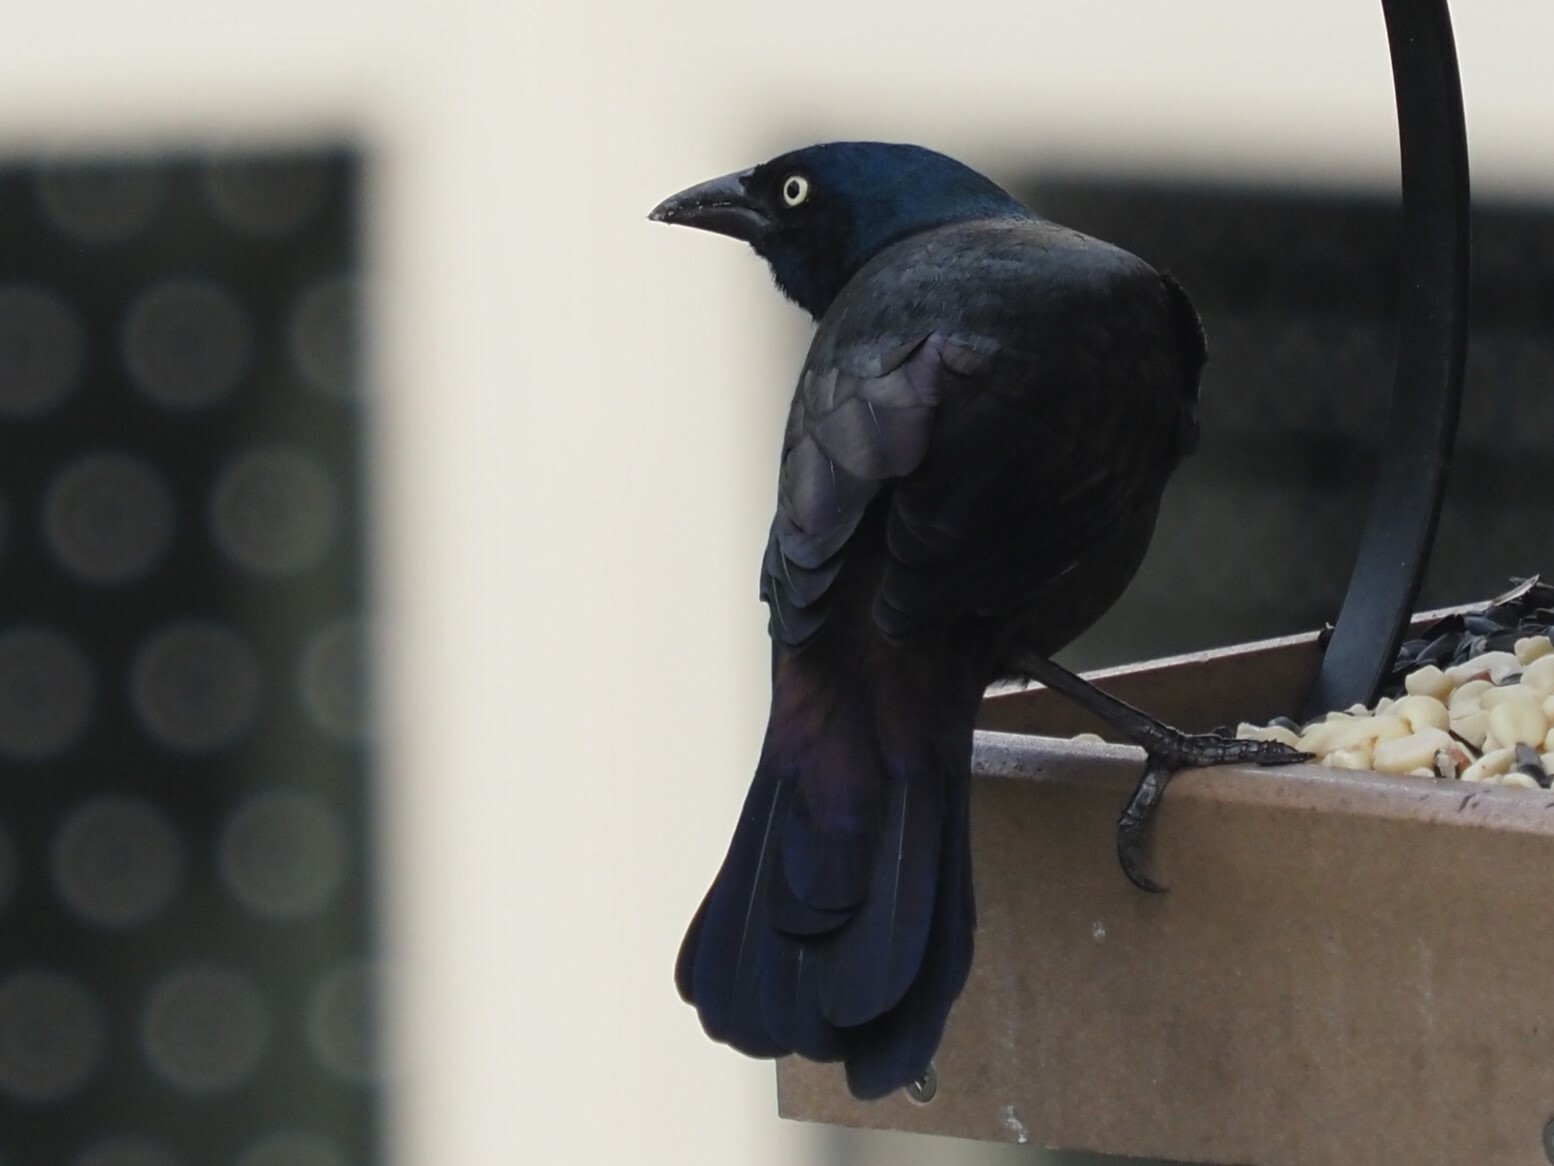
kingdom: Animalia
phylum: Chordata
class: Aves
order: Passeriformes
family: Icteridae
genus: Quiscalus
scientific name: Quiscalus quiscula
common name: Common grackle
